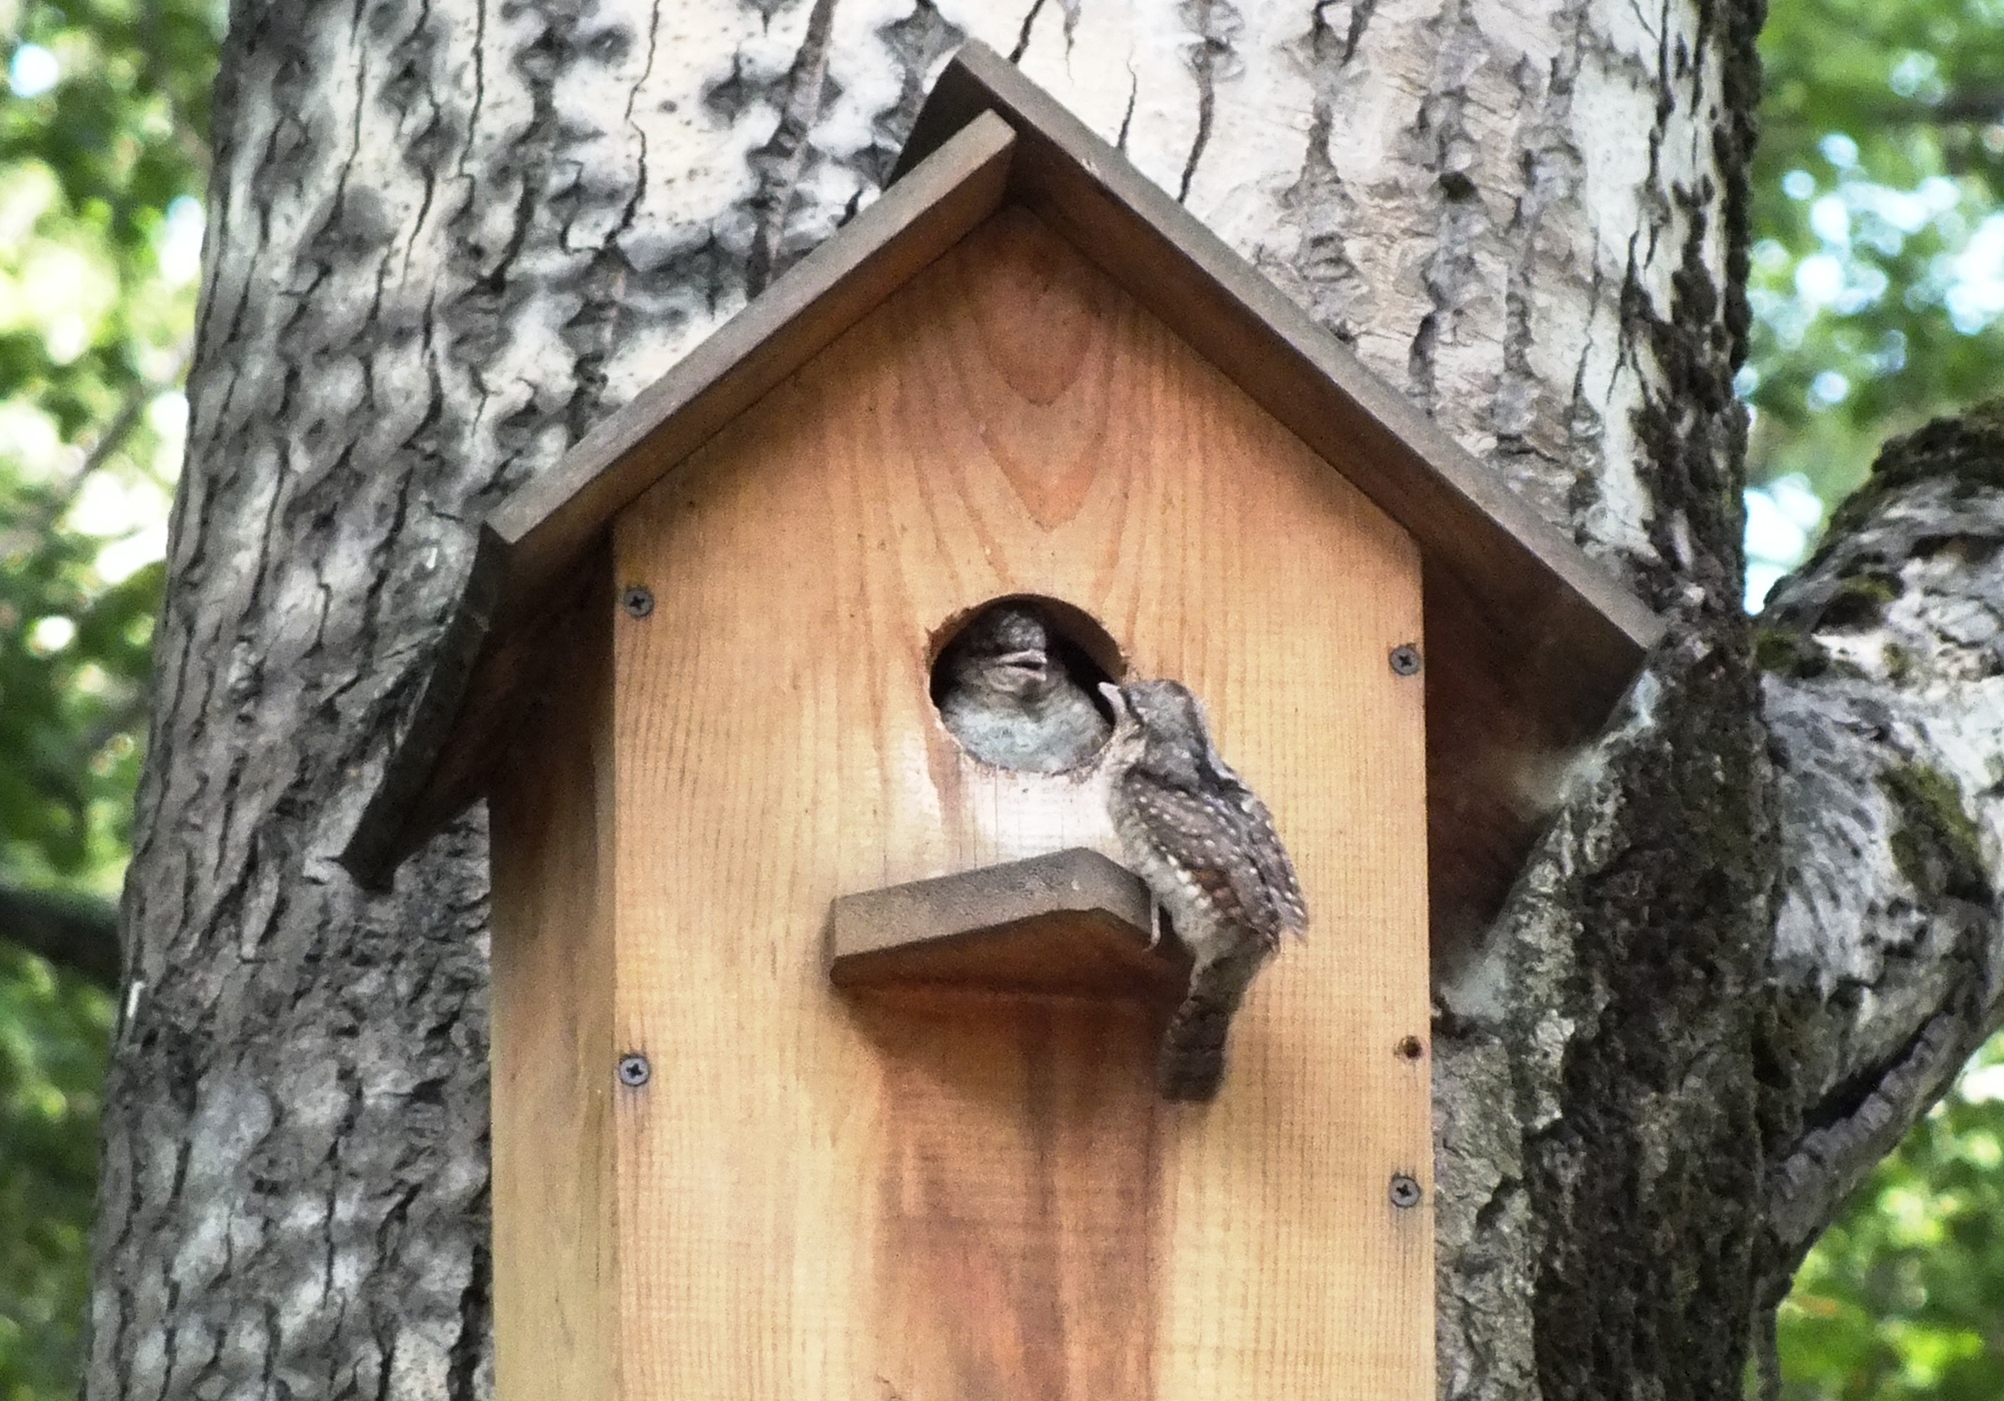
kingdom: Animalia
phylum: Chordata
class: Aves
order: Piciformes
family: Picidae
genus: Jynx
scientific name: Jynx torquilla
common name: Eurasian wryneck
